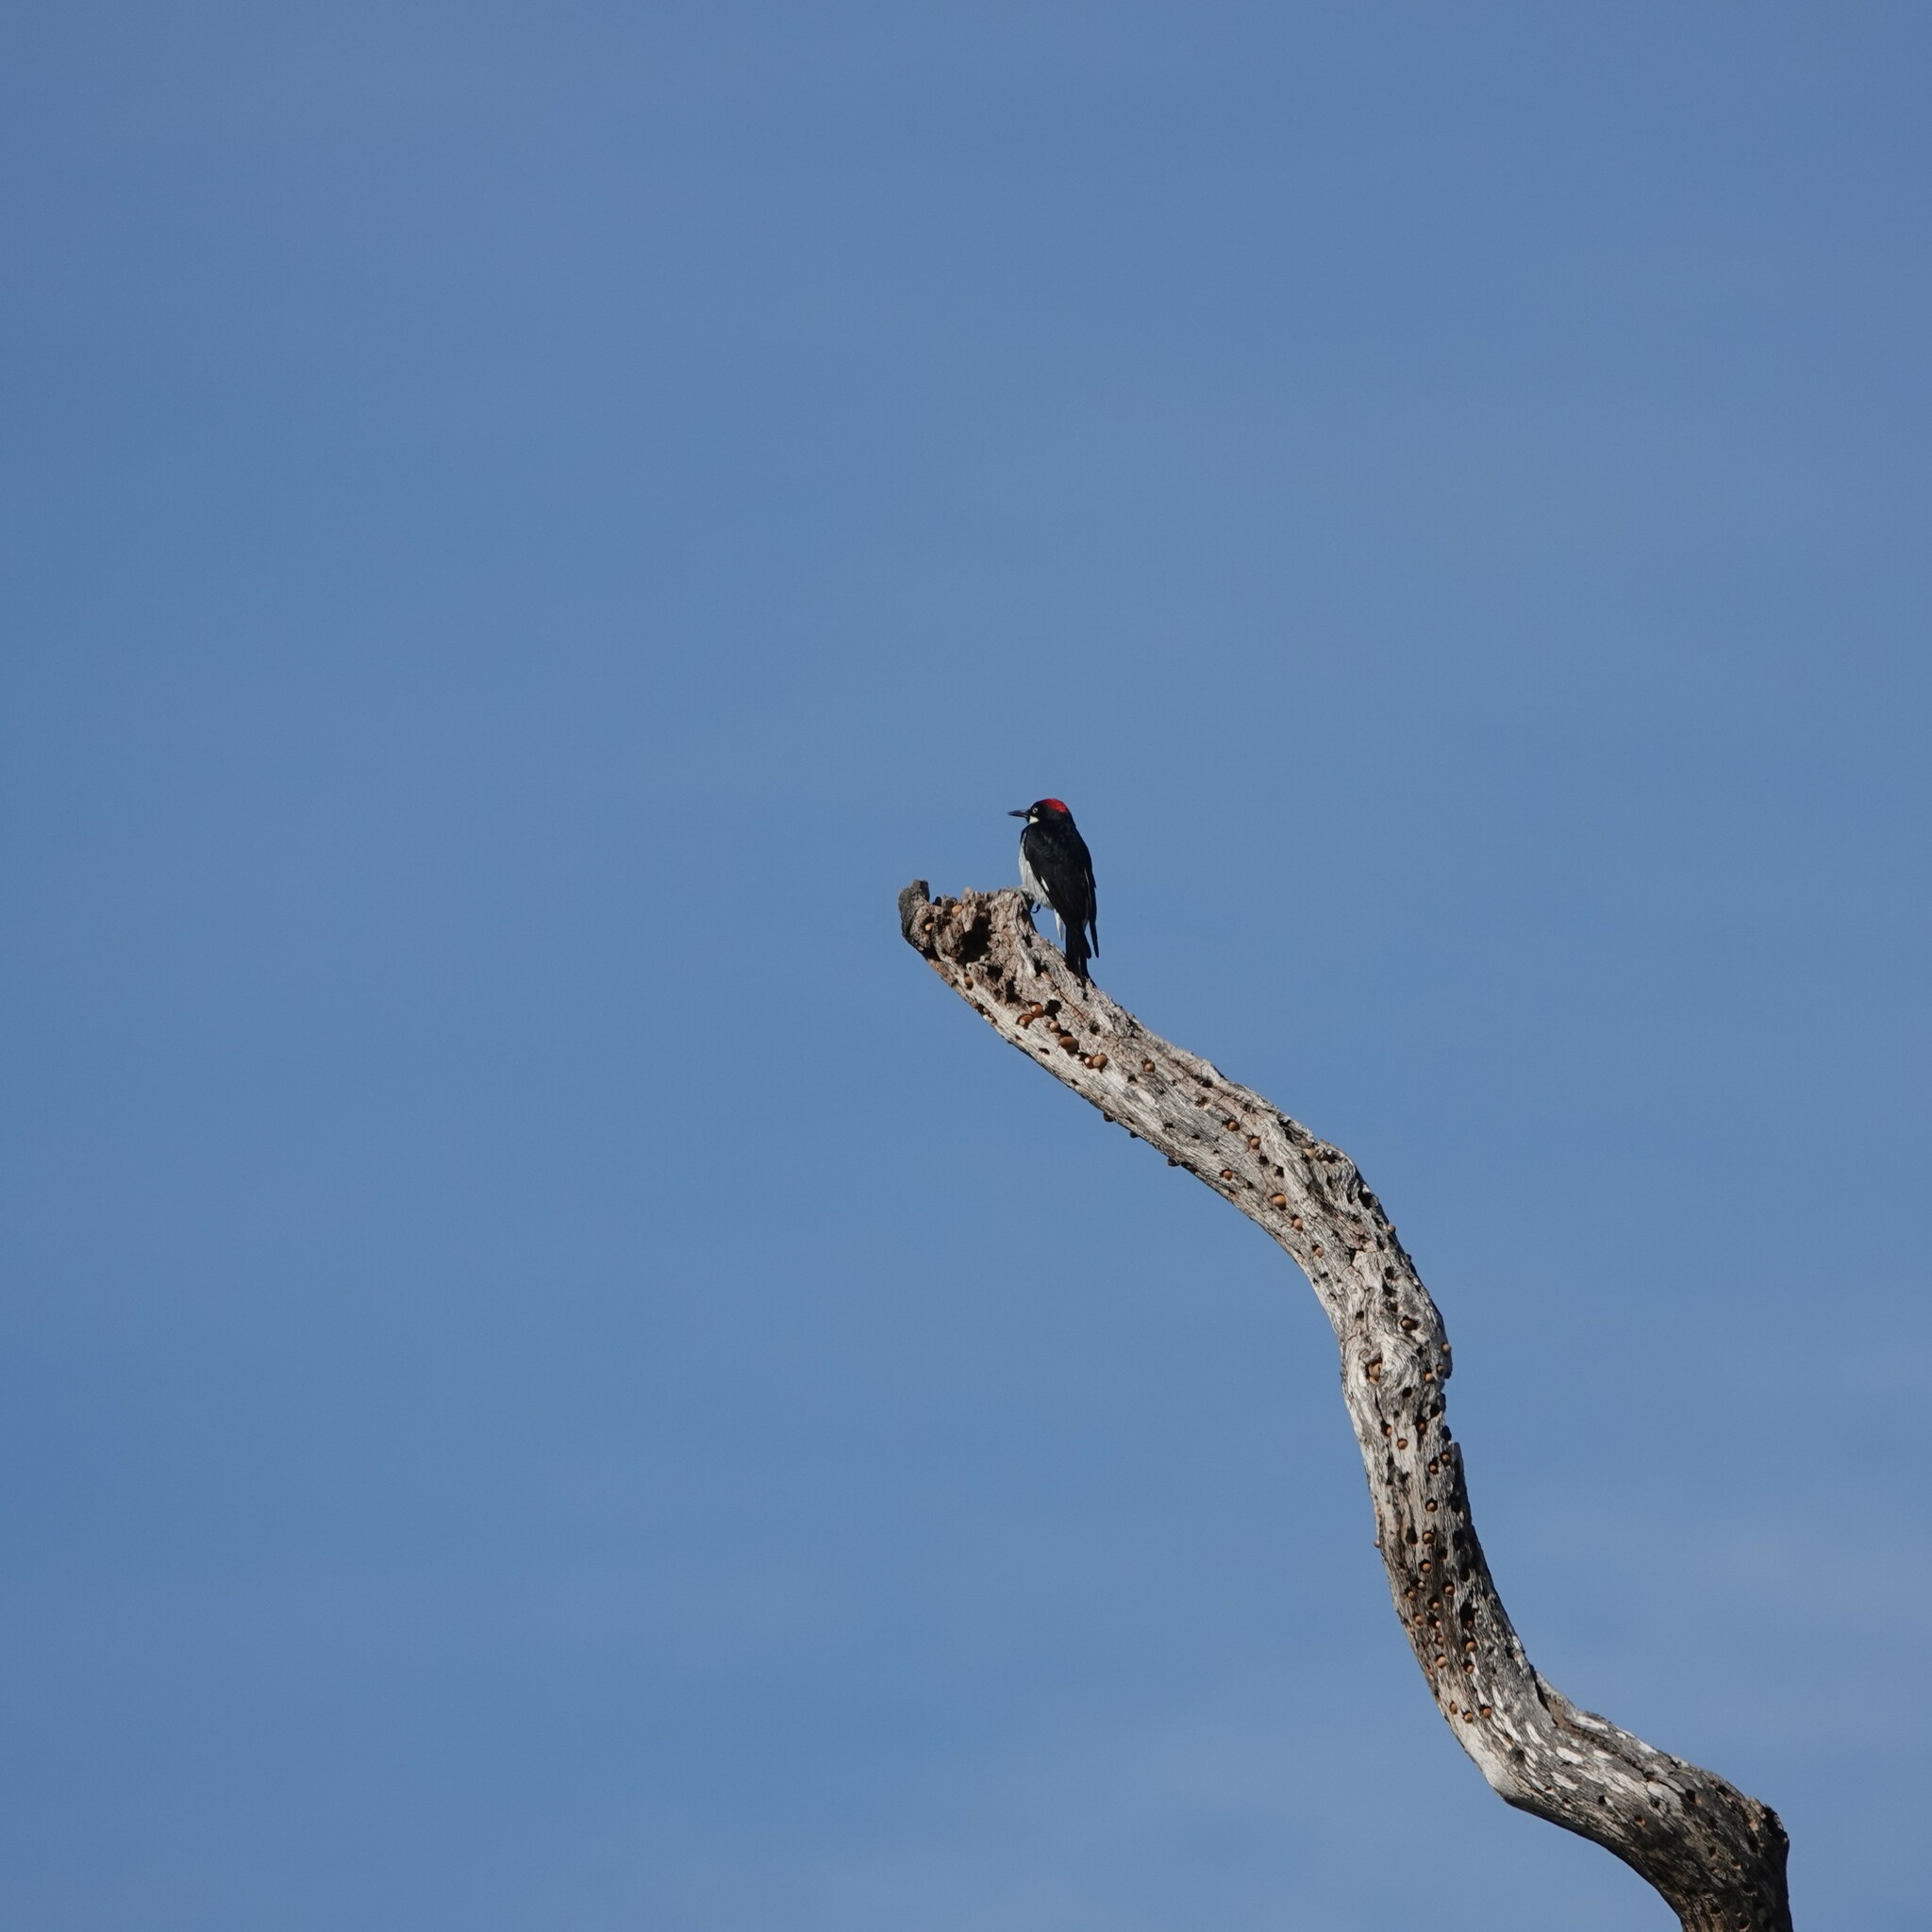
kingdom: Animalia
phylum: Chordata
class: Aves
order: Piciformes
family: Picidae
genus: Melanerpes
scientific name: Melanerpes formicivorus
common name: Acorn woodpecker
